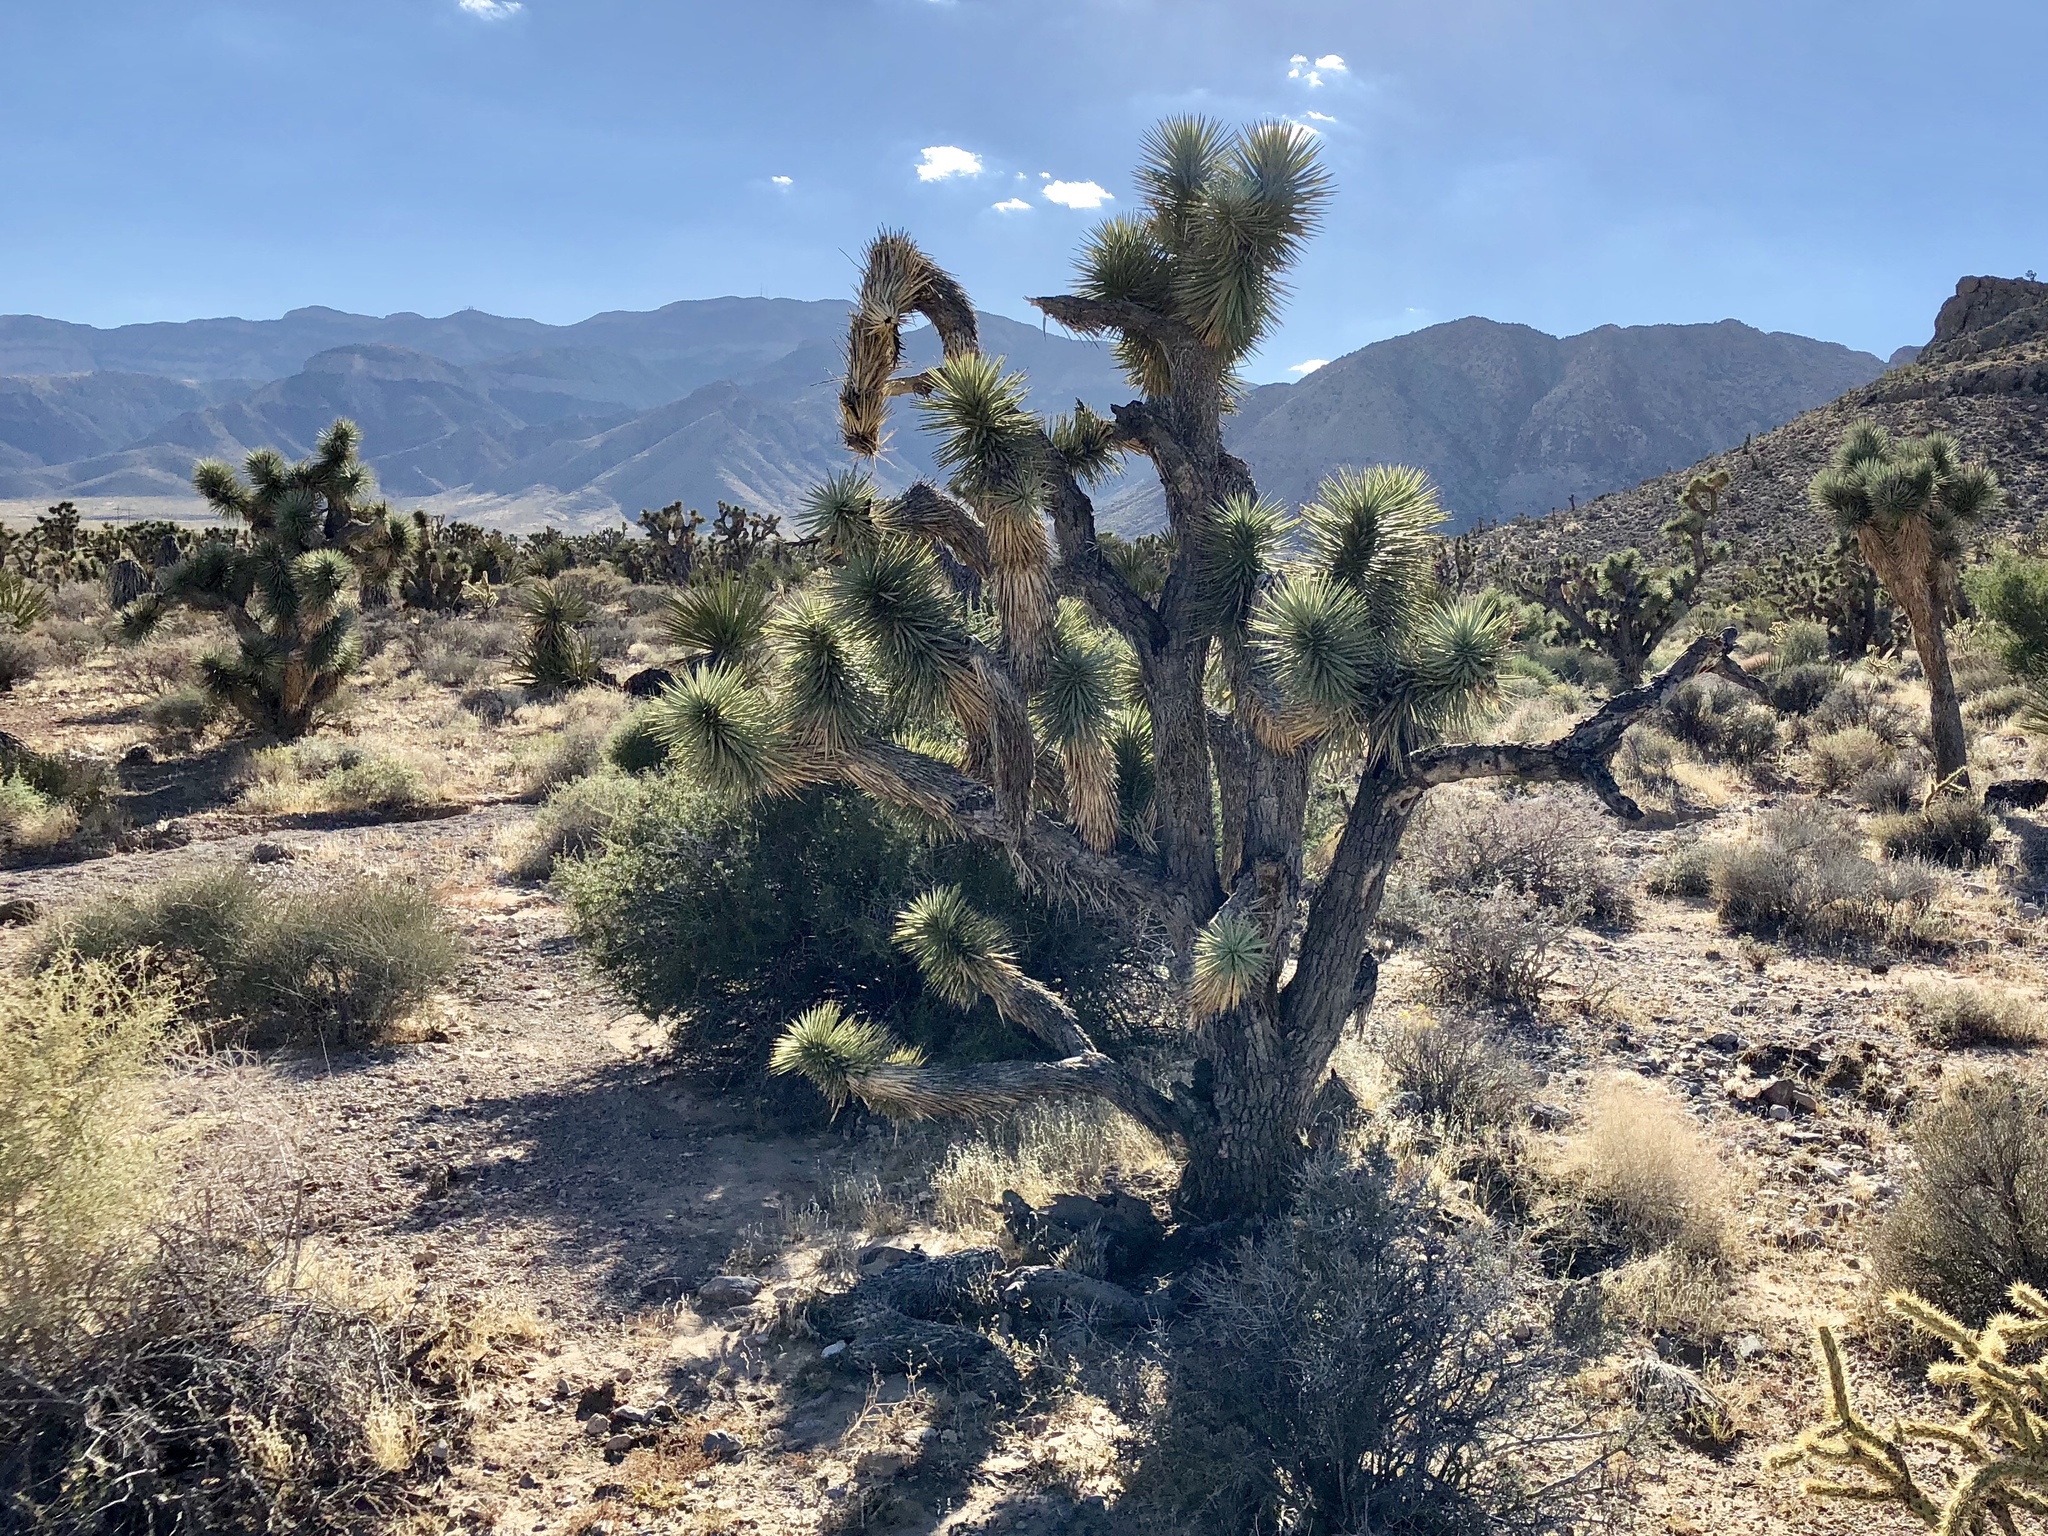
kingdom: Plantae
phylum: Tracheophyta
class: Liliopsida
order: Asparagales
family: Asparagaceae
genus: Yucca
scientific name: Yucca brevifolia
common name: Joshua tree
